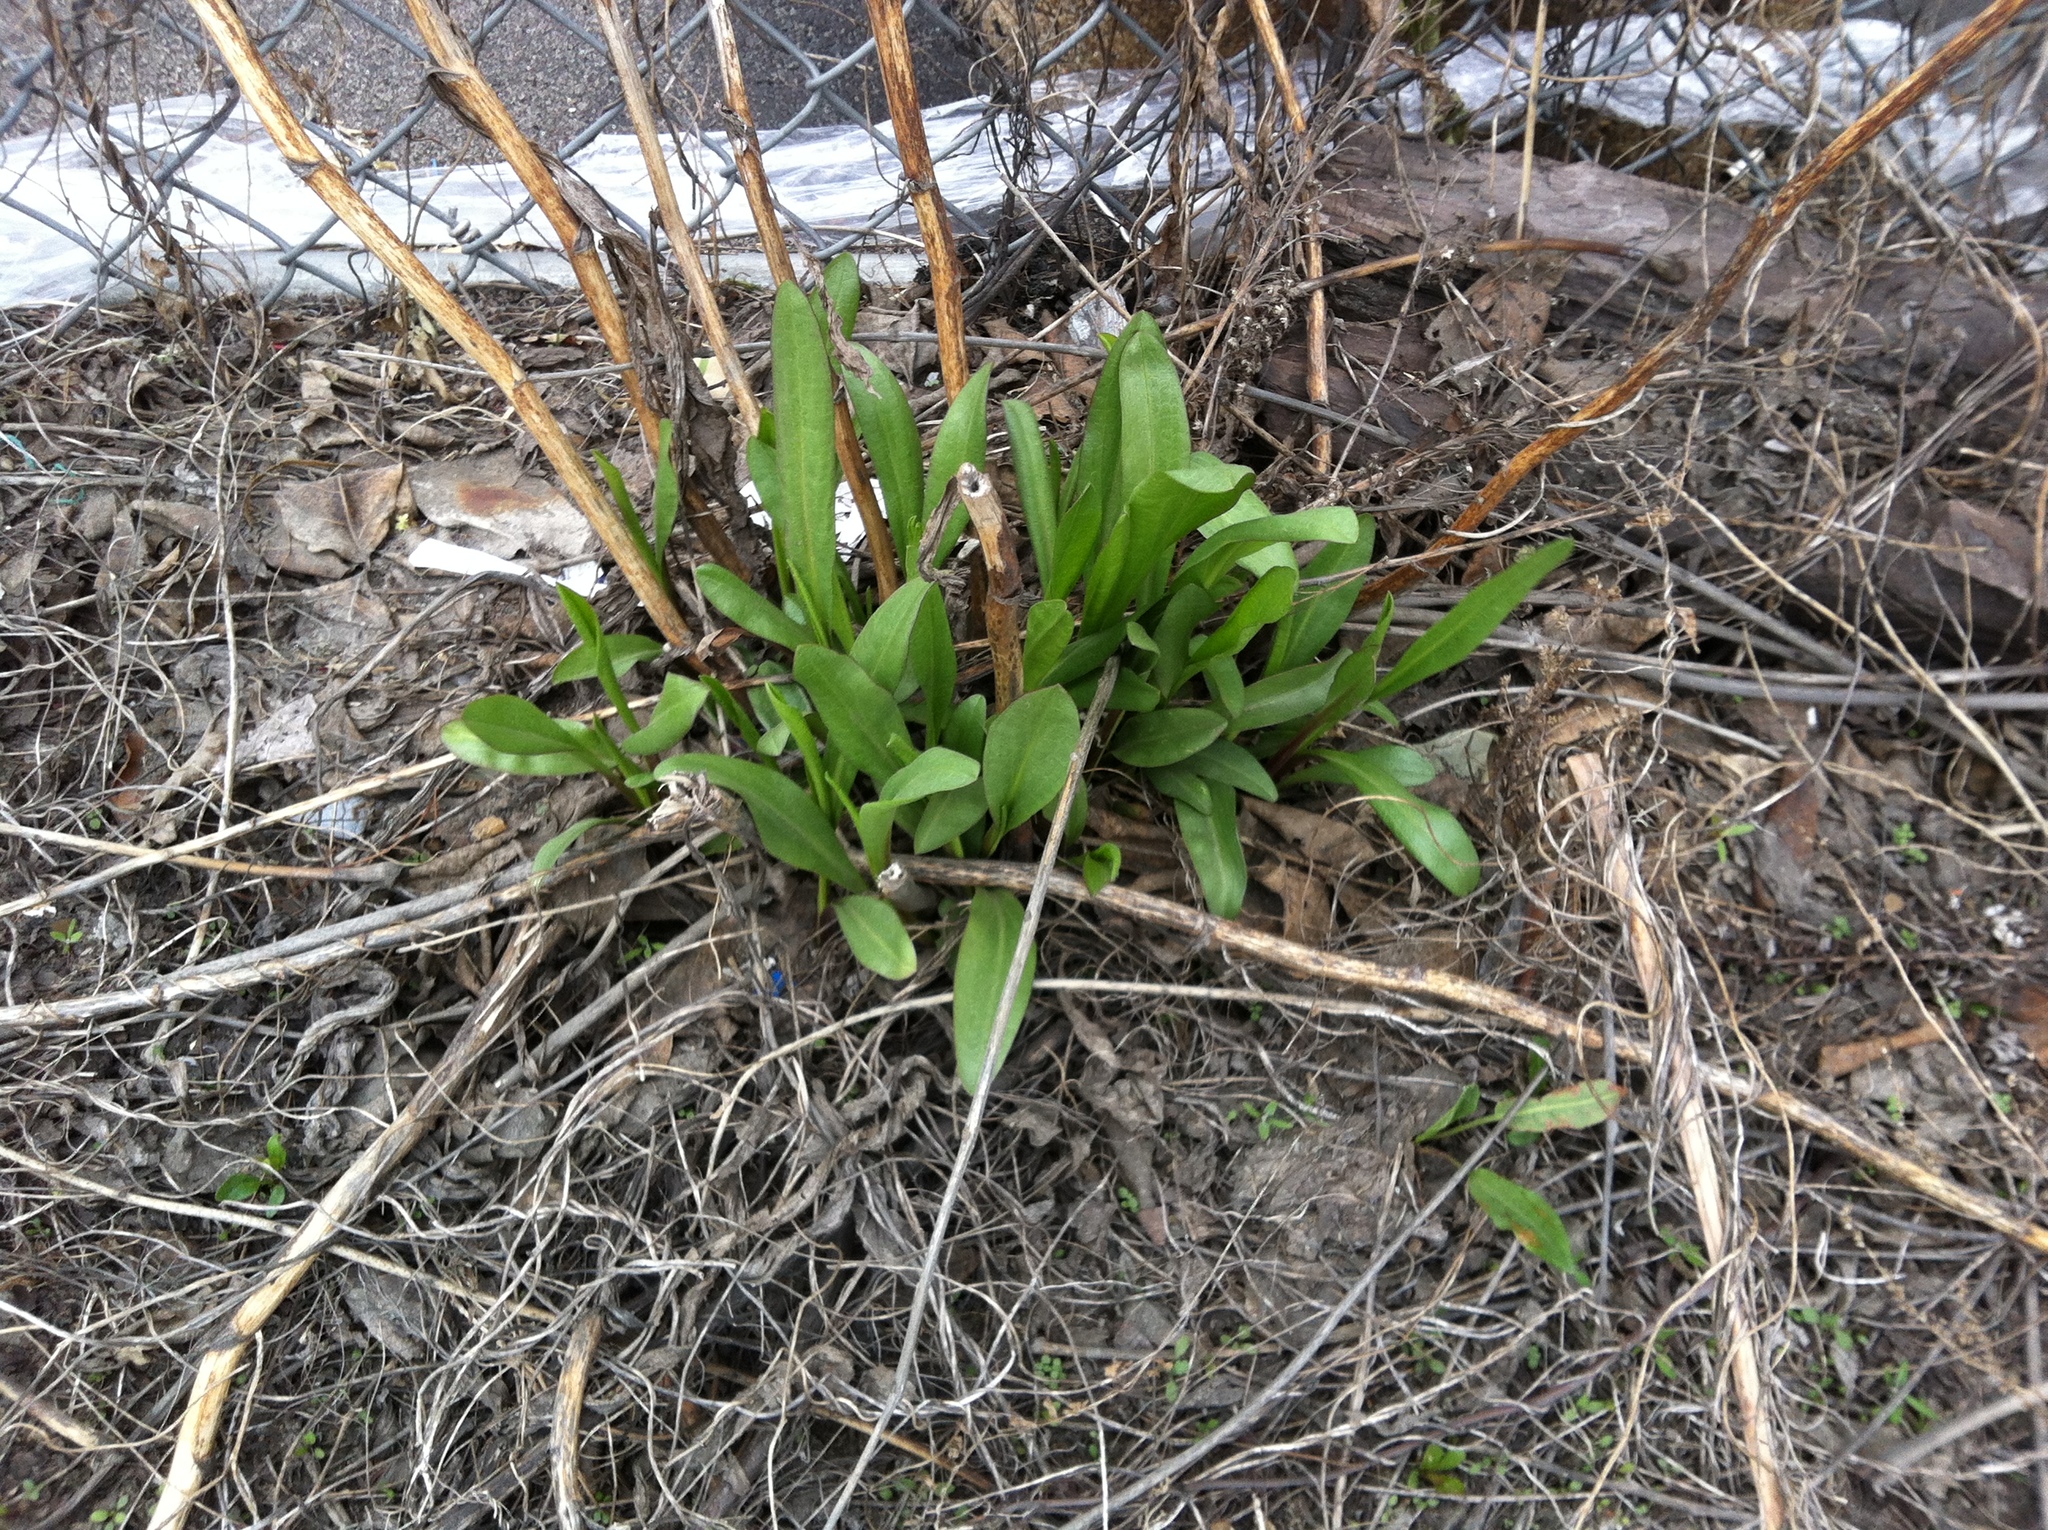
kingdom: Plantae
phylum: Tracheophyta
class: Magnoliopsida
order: Asterales
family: Asteraceae
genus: Solidago
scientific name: Solidago sempervirens
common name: Salt-marsh goldenrod
